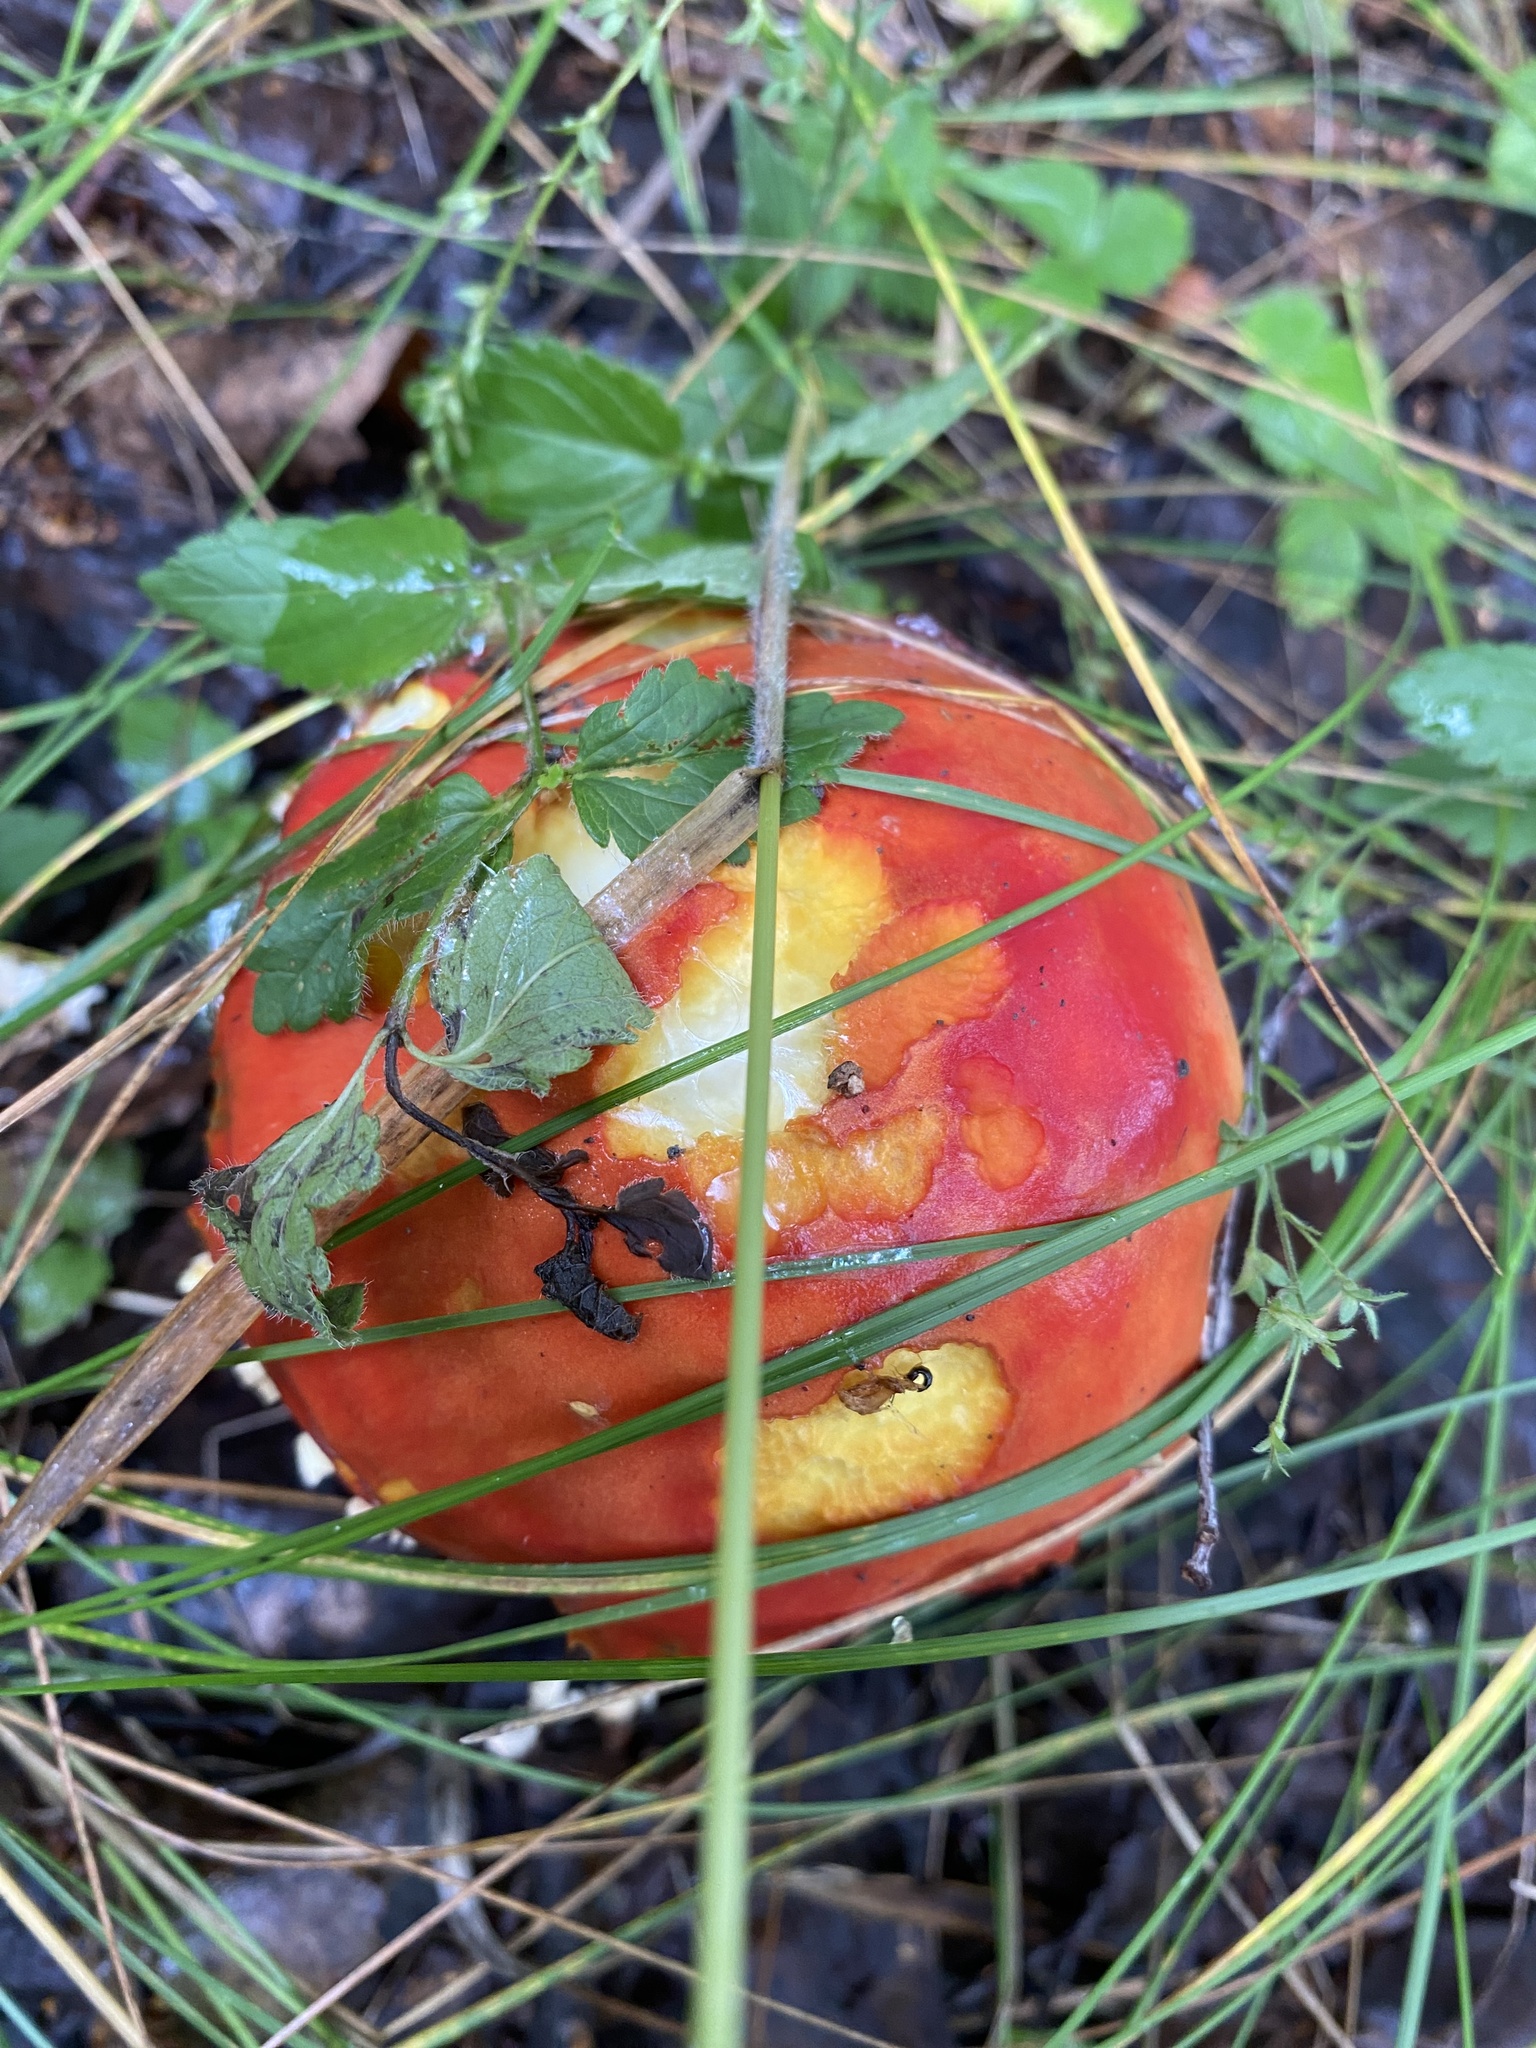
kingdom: Fungi
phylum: Basidiomycota
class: Agaricomycetes
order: Agaricales
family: Amanitaceae
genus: Amanita
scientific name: Amanita muscaria
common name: Fly agaric
